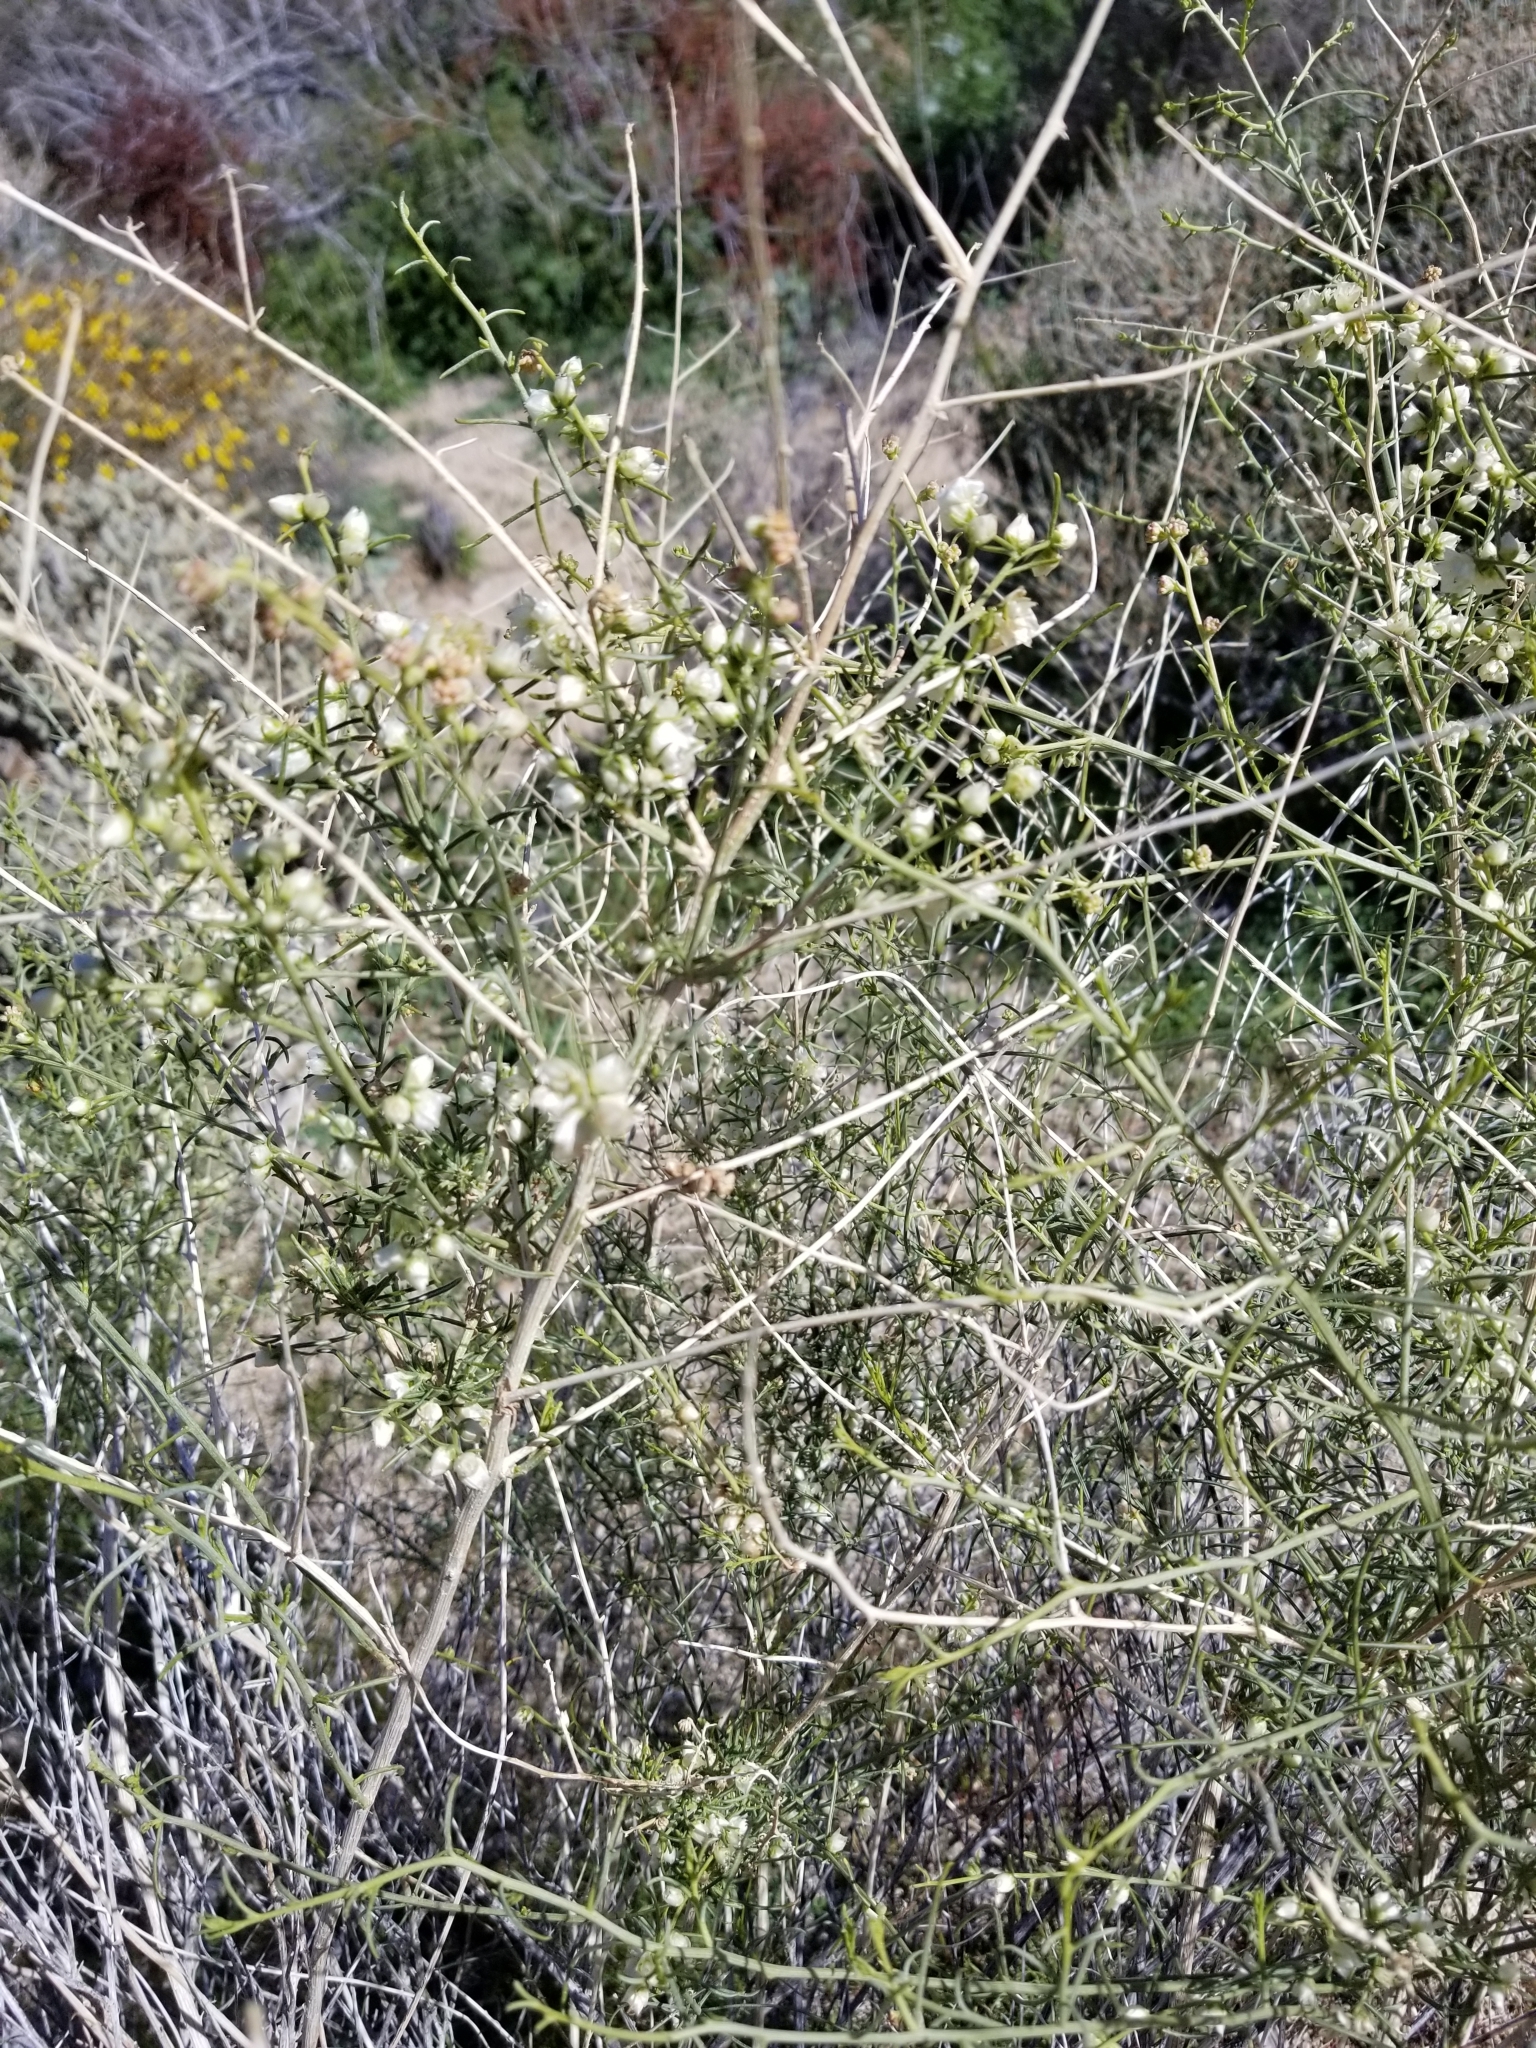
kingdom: Plantae
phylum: Tracheophyta
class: Magnoliopsida
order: Asterales
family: Asteraceae
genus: Ambrosia
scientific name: Ambrosia salsola
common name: Burrobrush
